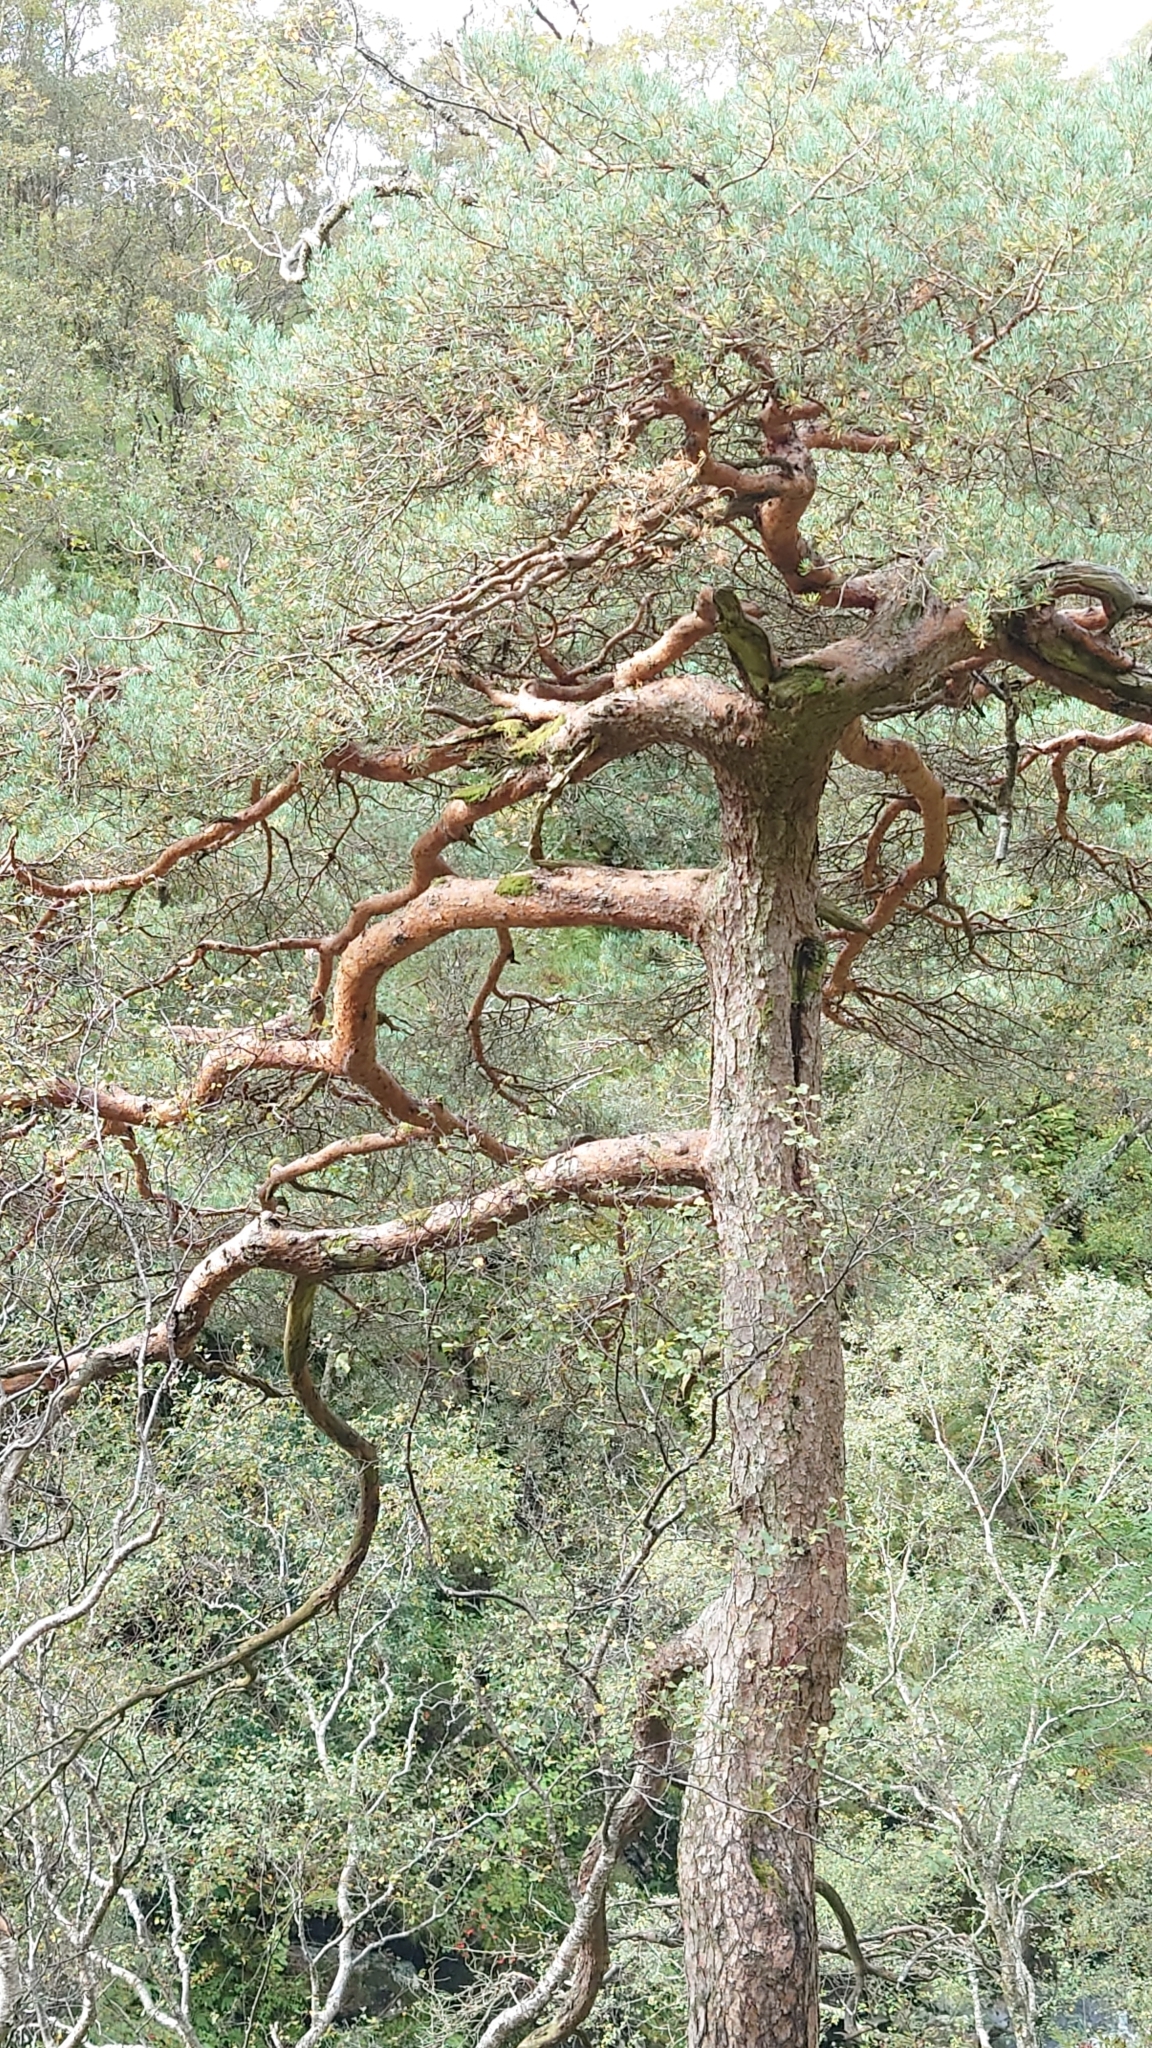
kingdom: Plantae
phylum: Tracheophyta
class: Pinopsida
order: Pinales
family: Pinaceae
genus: Pinus
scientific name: Pinus sylvestris
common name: Scots pine
